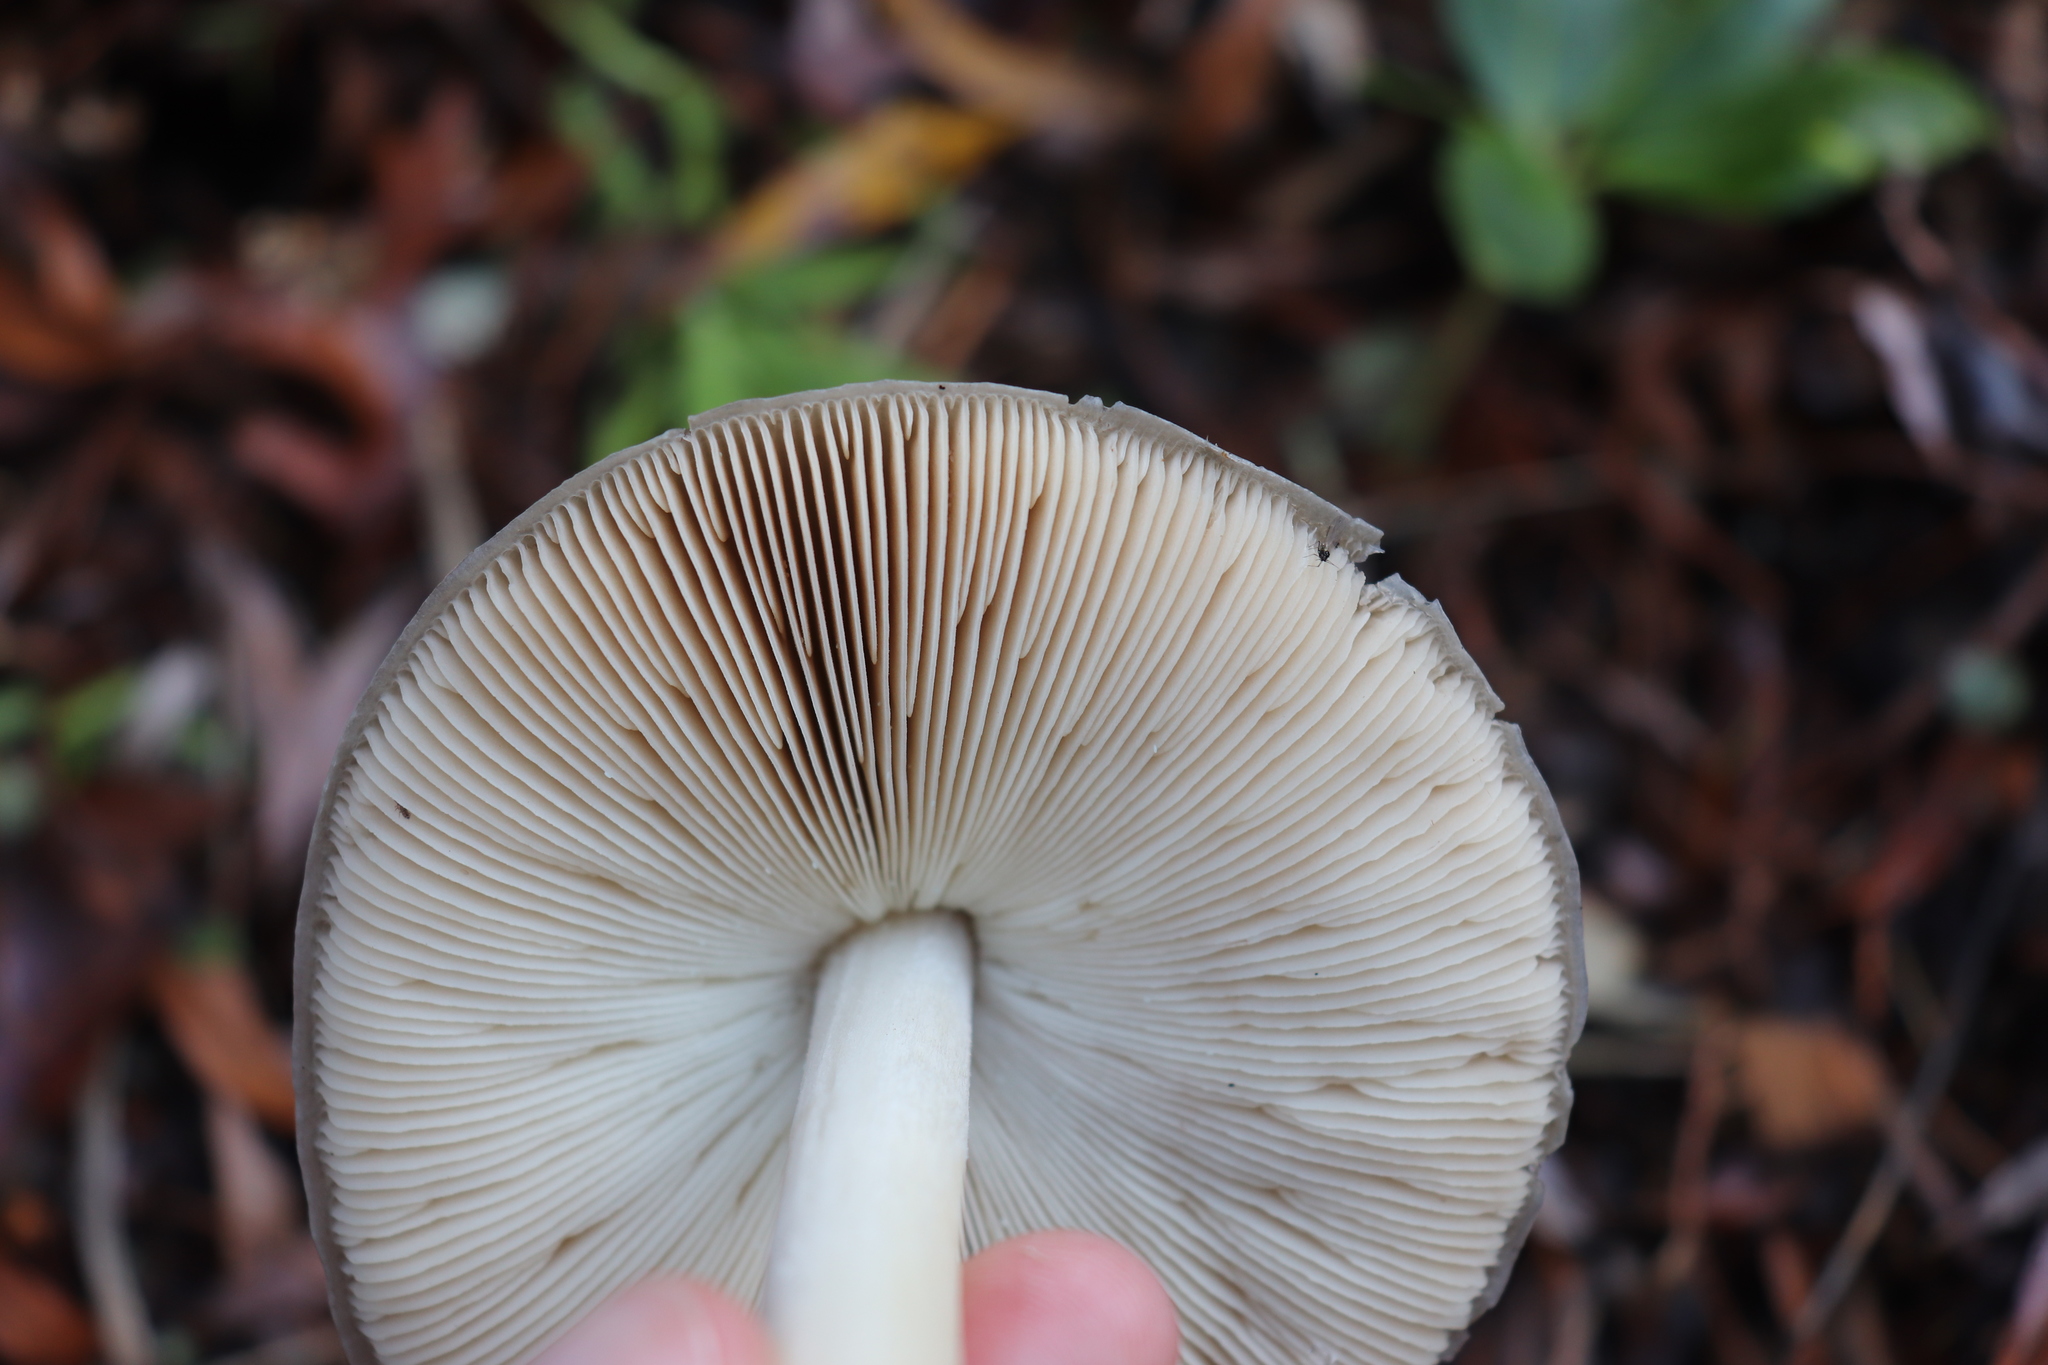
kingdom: Fungi
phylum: Basidiomycota
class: Agaricomycetes
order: Agaricales
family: Pluteaceae
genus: Volvopluteus
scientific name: Volvopluteus gloiocephalus
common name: Stubble rosegill
